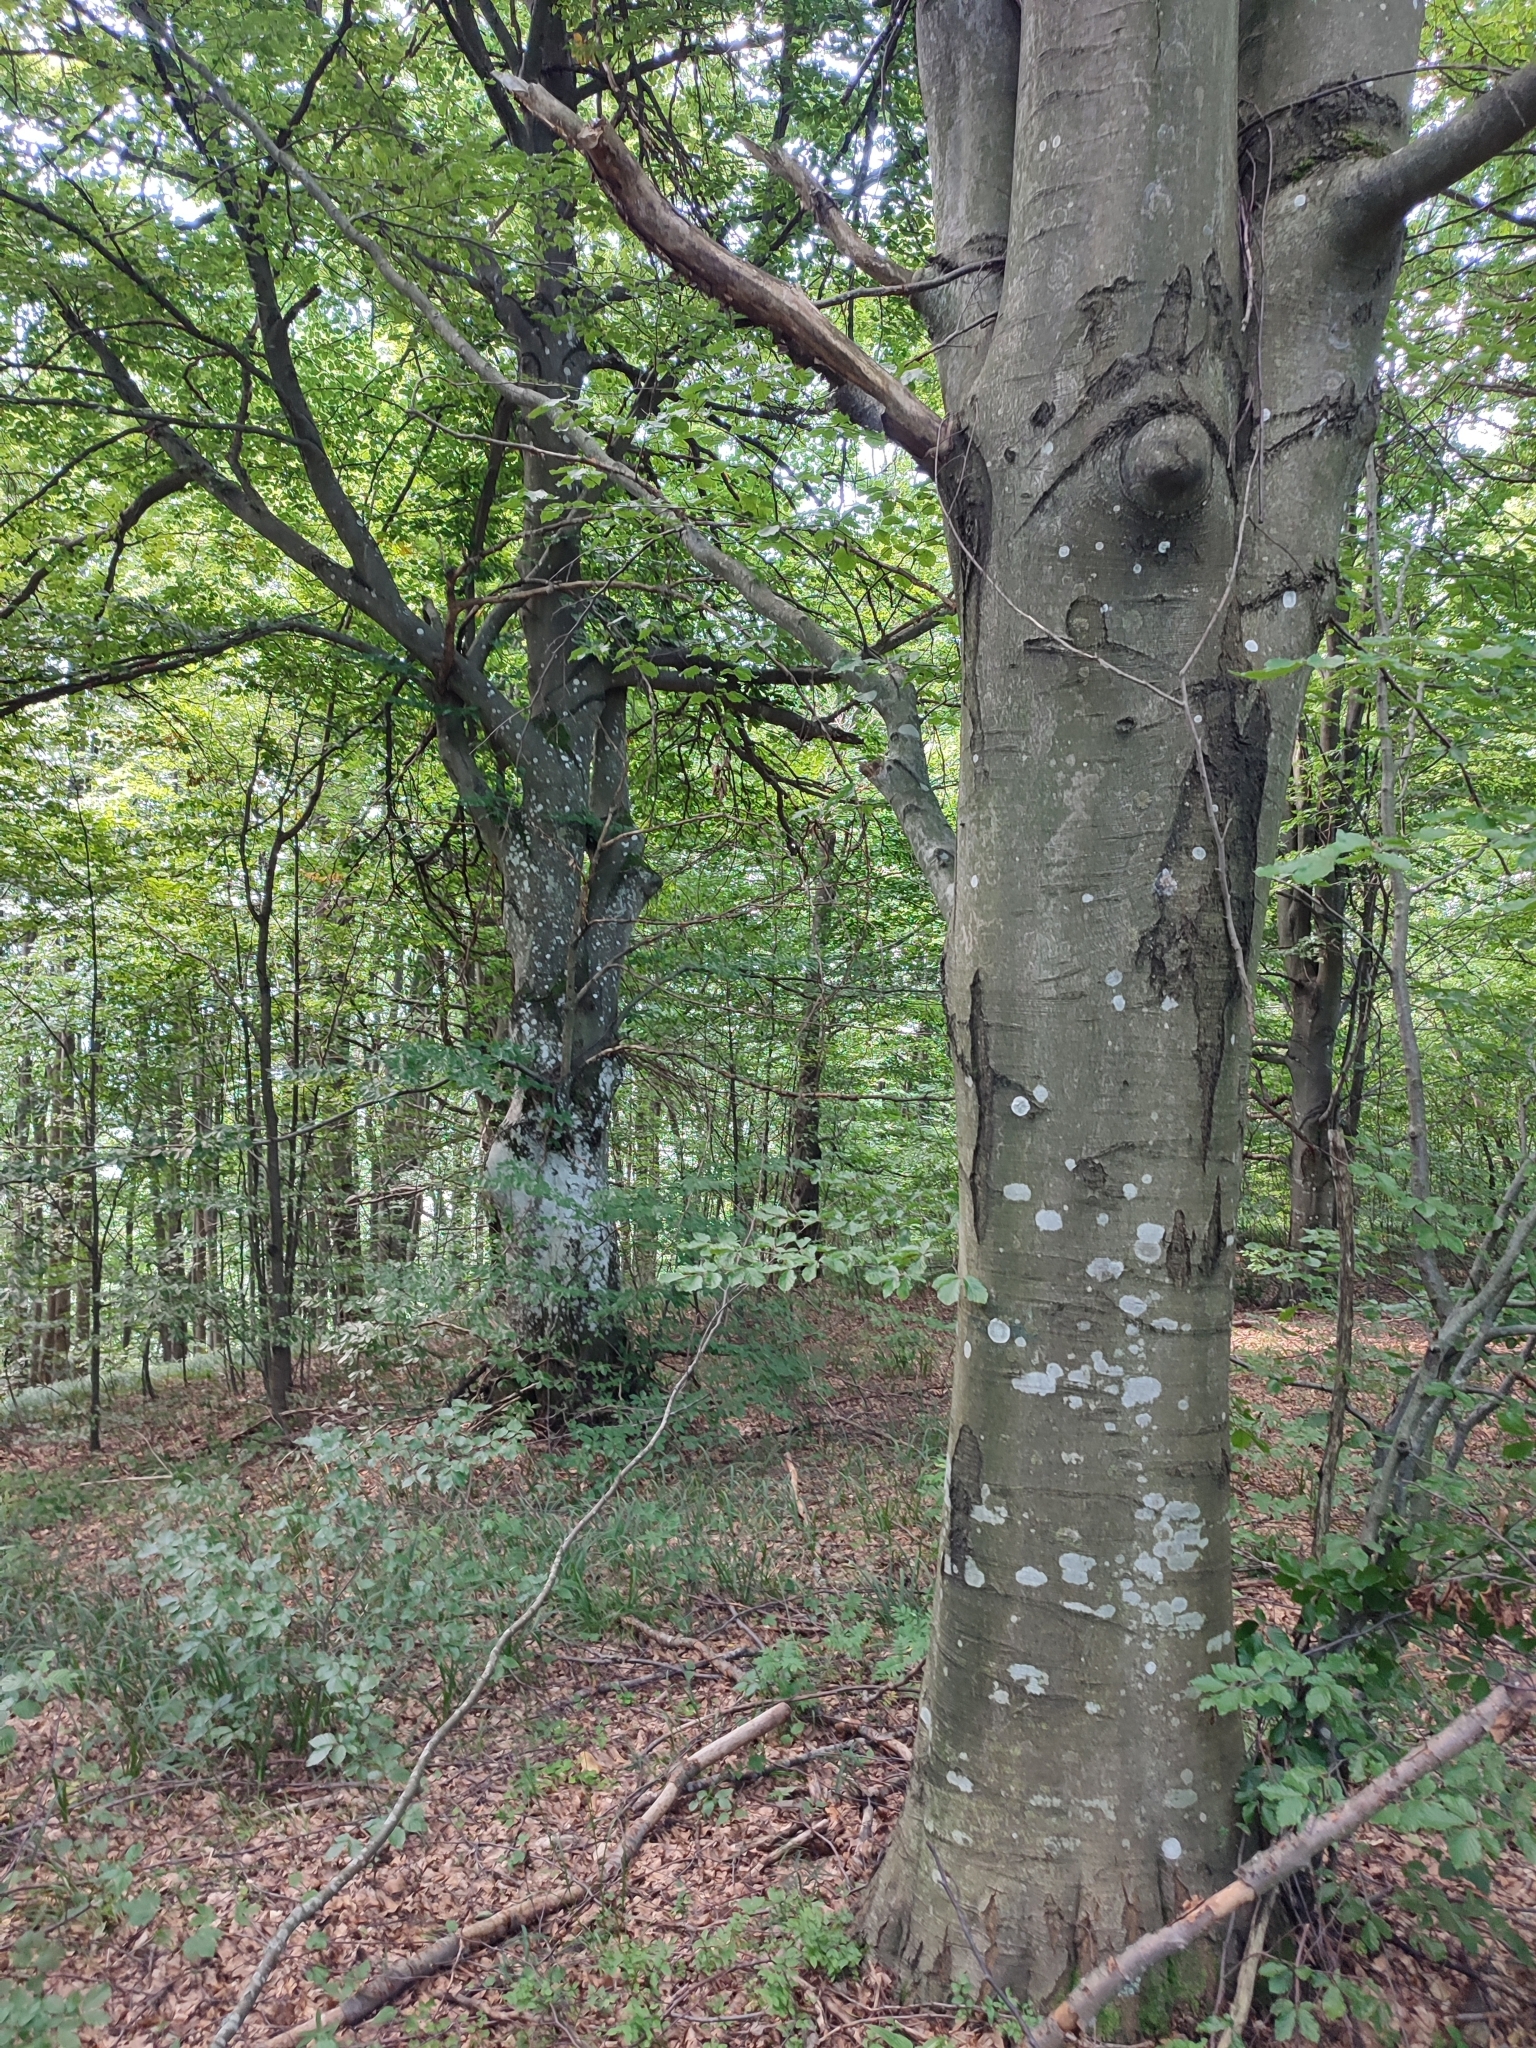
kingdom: Plantae
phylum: Tracheophyta
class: Magnoliopsida
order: Fagales
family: Fagaceae
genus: Fagus
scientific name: Fagus sylvatica
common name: Beech
